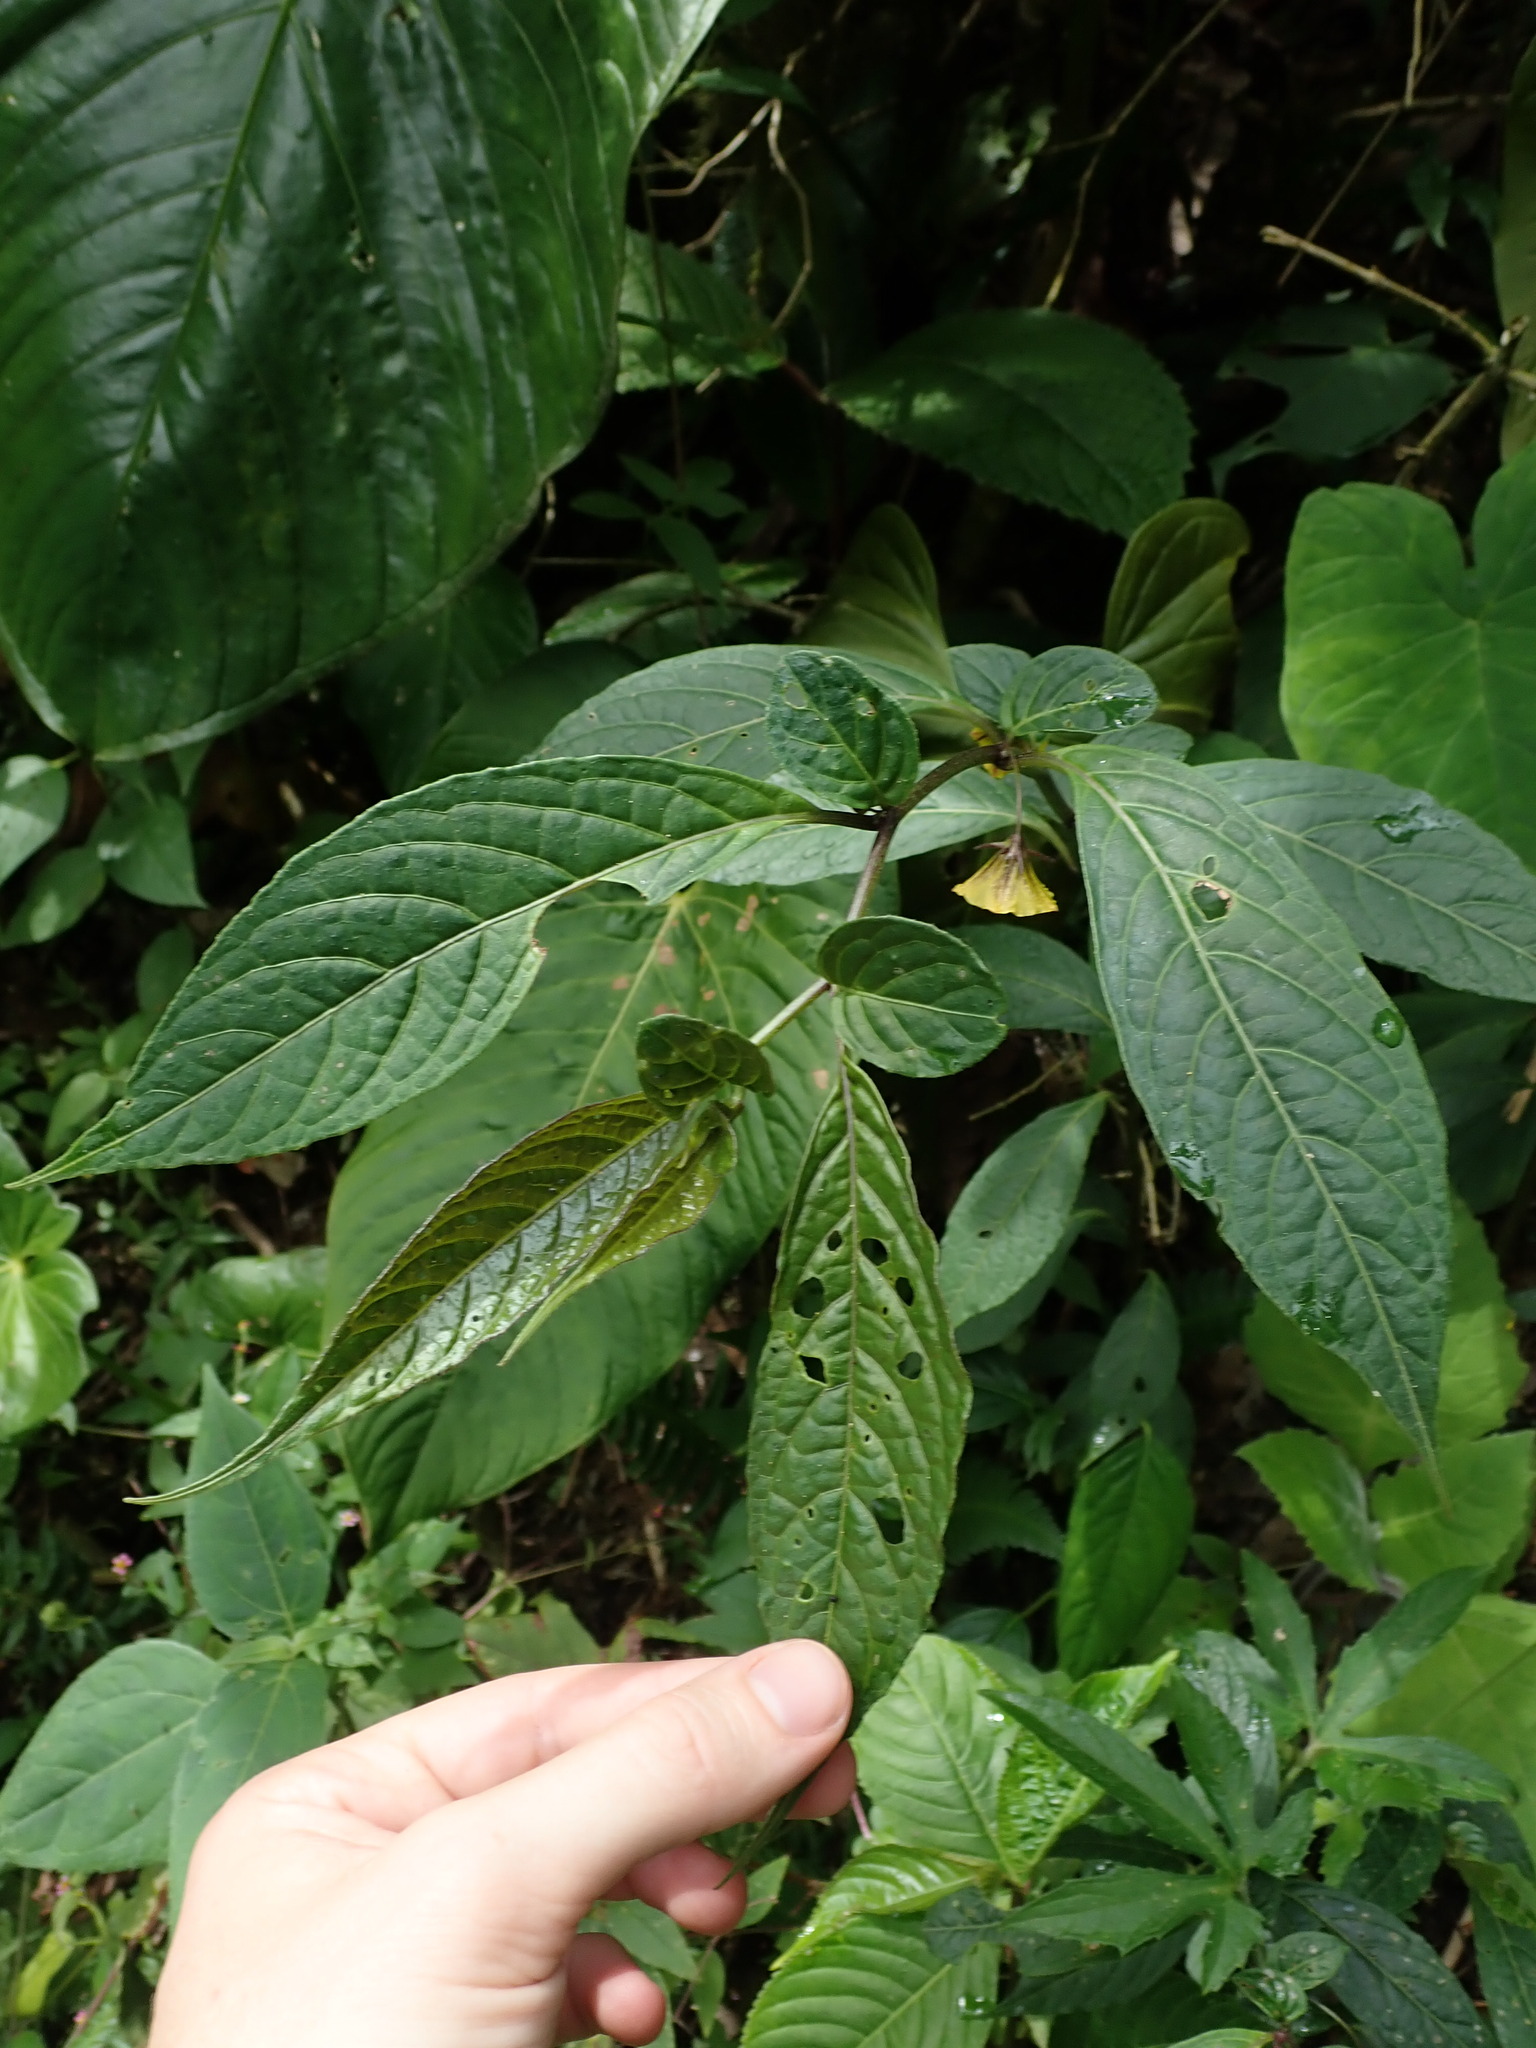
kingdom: Plantae
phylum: Tracheophyta
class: Magnoliopsida
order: Solanales
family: Solanaceae
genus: Capsicum
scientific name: Capsicum lycianthoides
